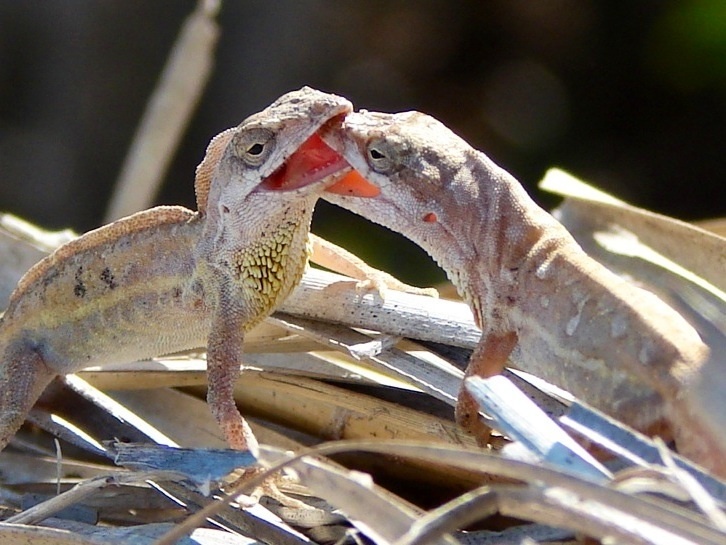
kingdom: Animalia
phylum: Chordata
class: Squamata
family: Dactyloidae
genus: Anolis
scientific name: Anolis nebulosus
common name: Clouded anole
